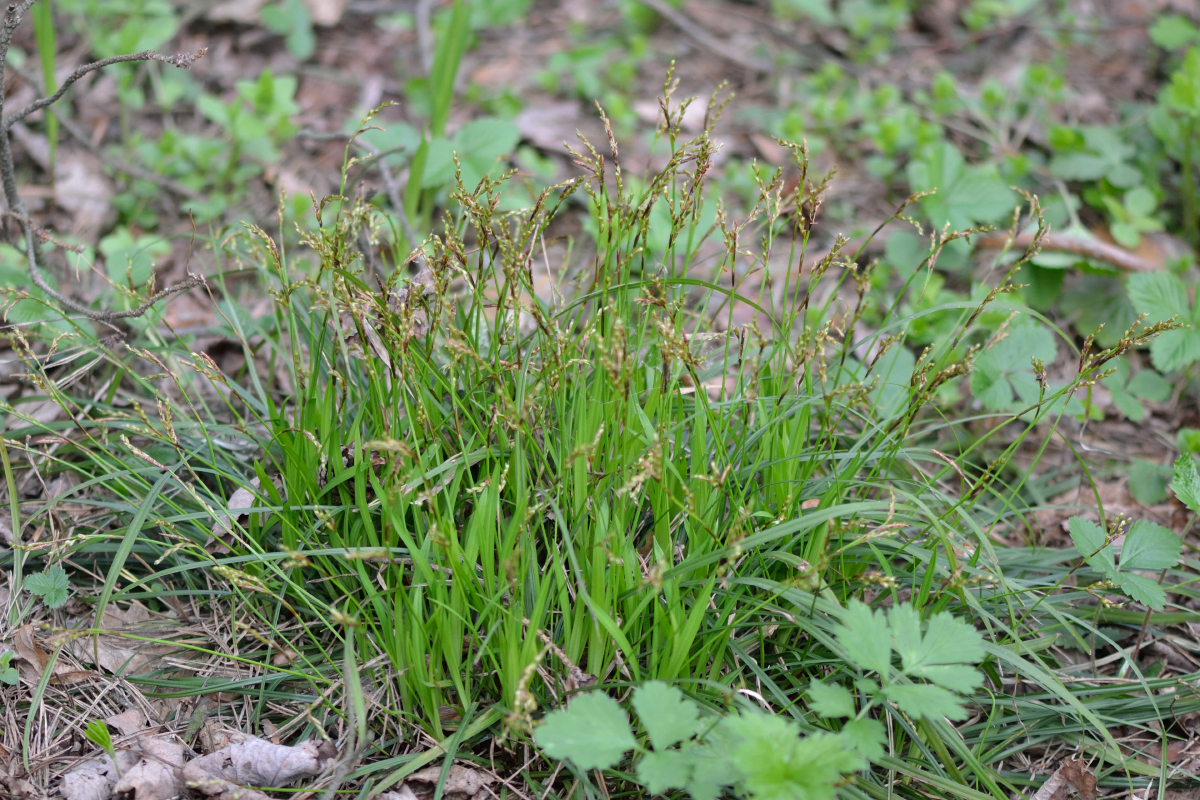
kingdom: Plantae
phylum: Tracheophyta
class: Liliopsida
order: Poales
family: Cyperaceae
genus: Carex
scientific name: Carex digitata
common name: Fingered sedge
